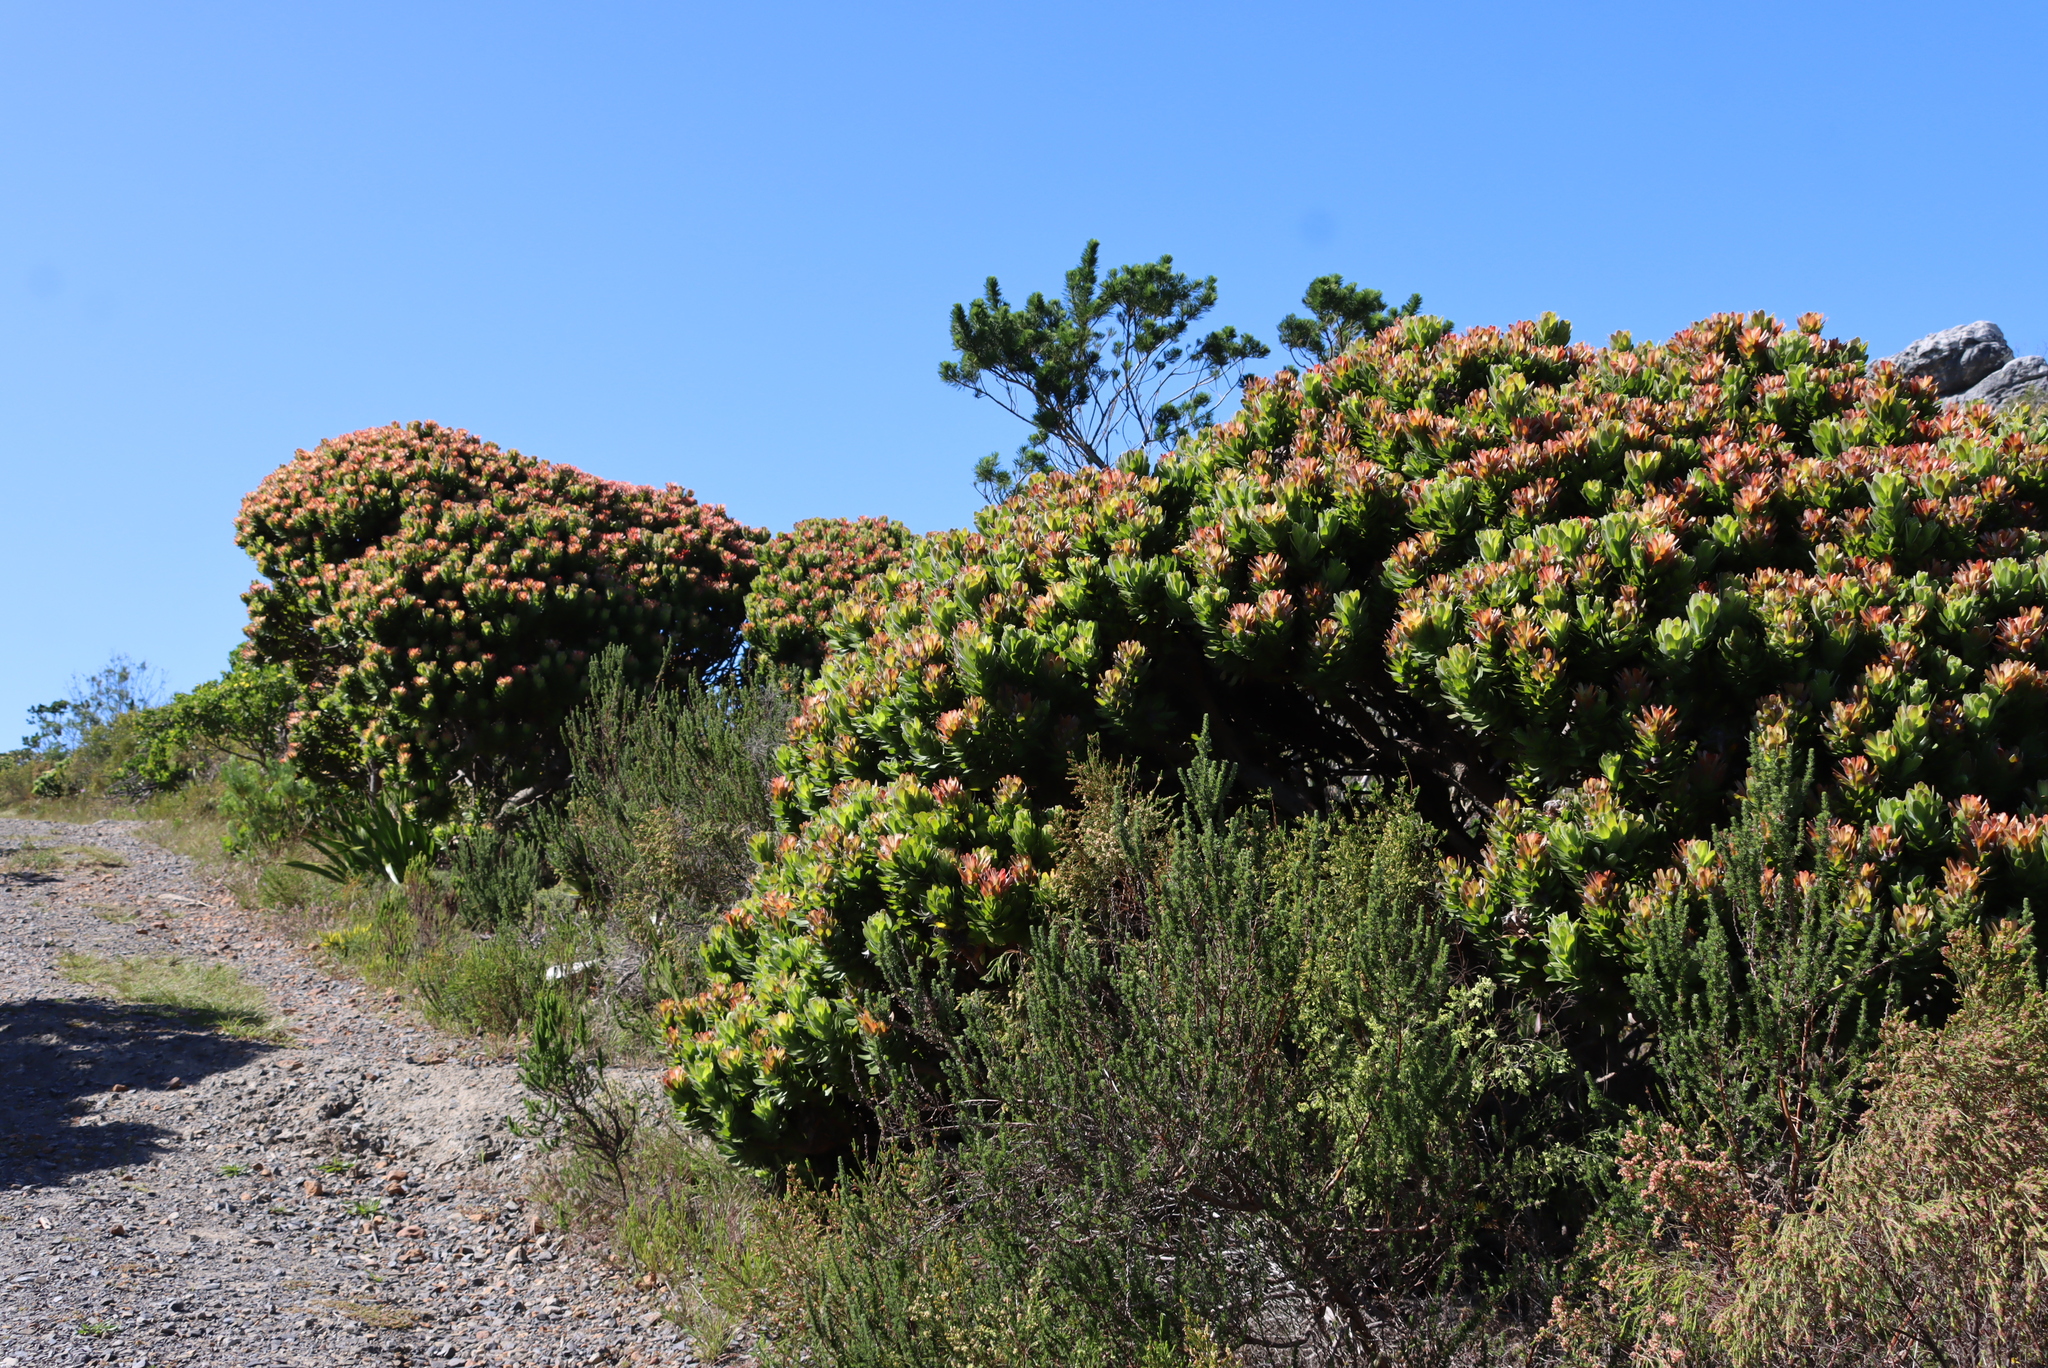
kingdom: Plantae
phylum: Tracheophyta
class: Magnoliopsida
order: Proteales
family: Proteaceae
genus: Mimetes
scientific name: Mimetes fimbriifolius
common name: Fringed bottlebrush
